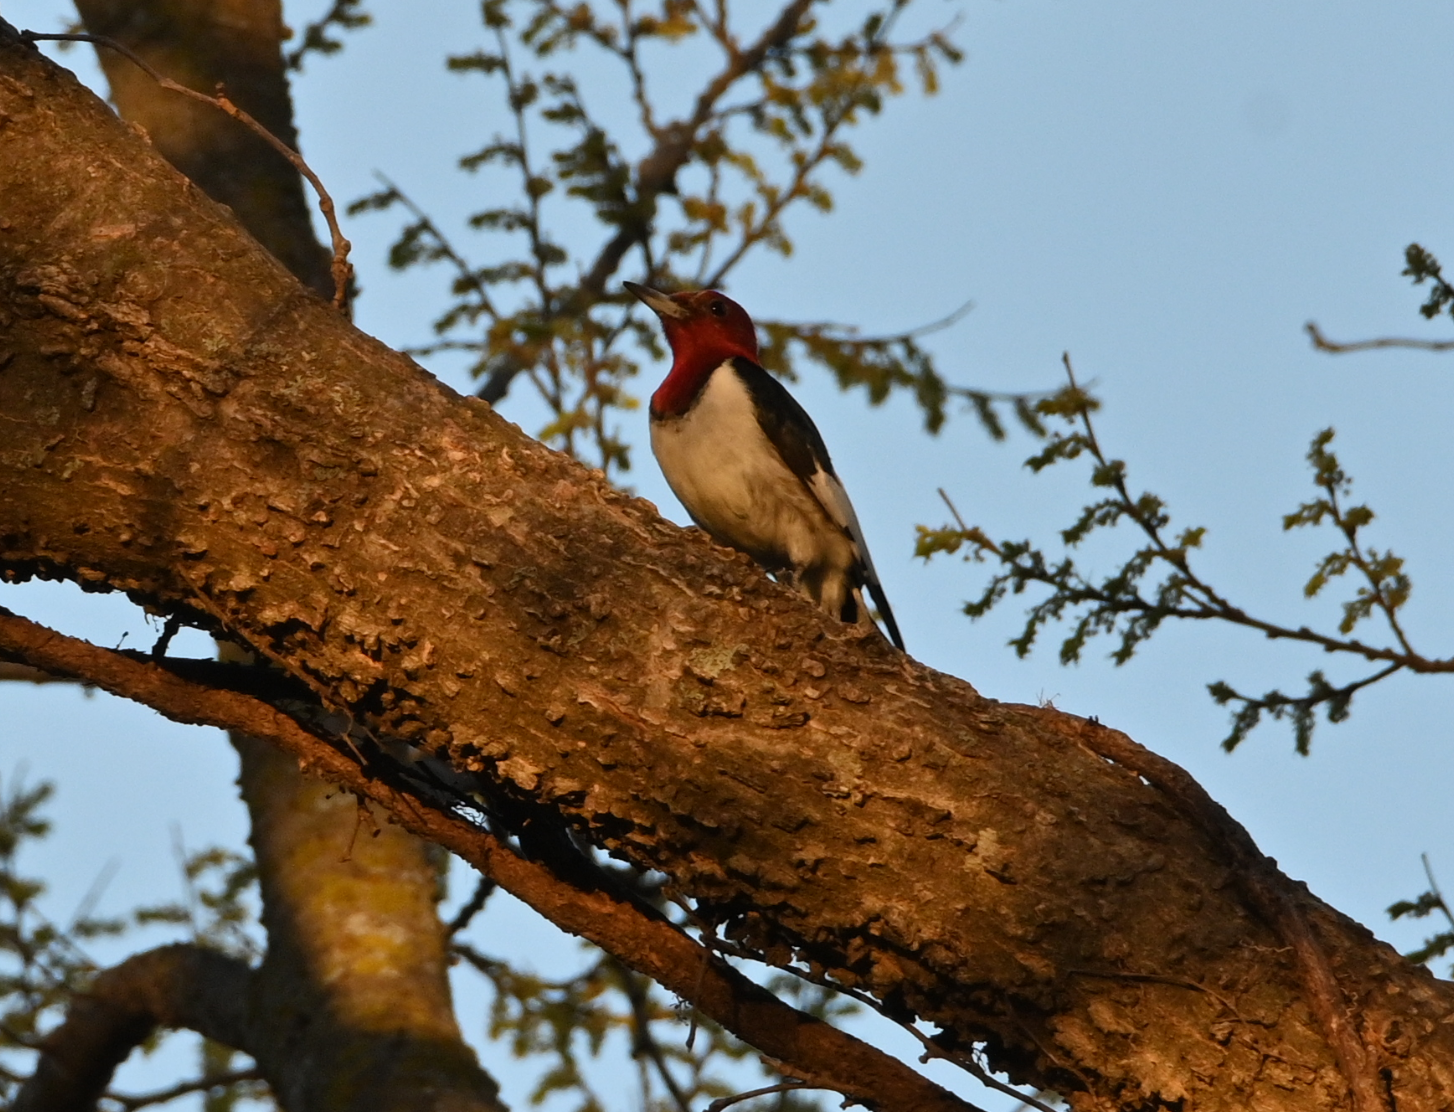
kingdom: Animalia
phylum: Chordata
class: Aves
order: Piciformes
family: Picidae
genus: Melanerpes
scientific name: Melanerpes erythrocephalus
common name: Red-headed woodpecker
